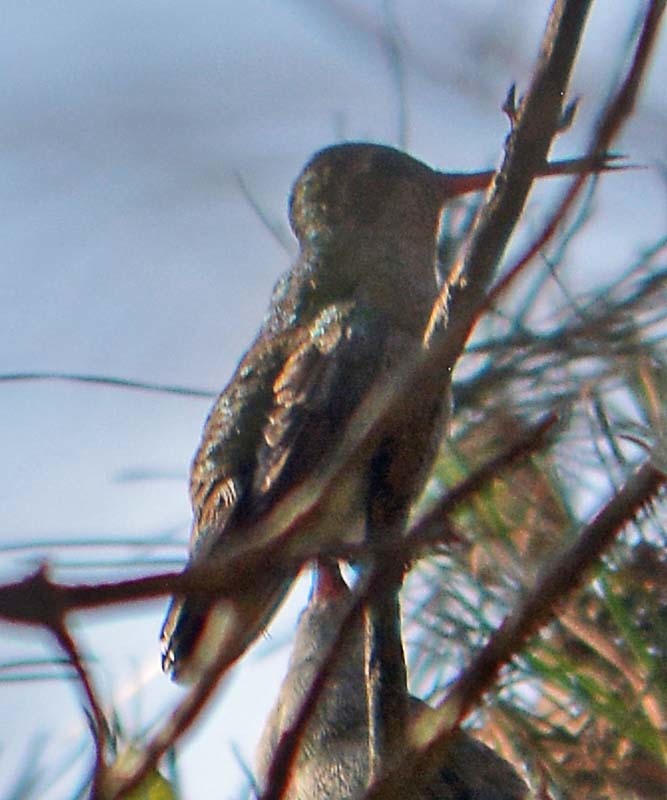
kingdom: Animalia
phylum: Chordata
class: Aves
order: Apodiformes
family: Trochilidae
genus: Cynanthus
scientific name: Cynanthus latirostris
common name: Broad-billed hummingbird
